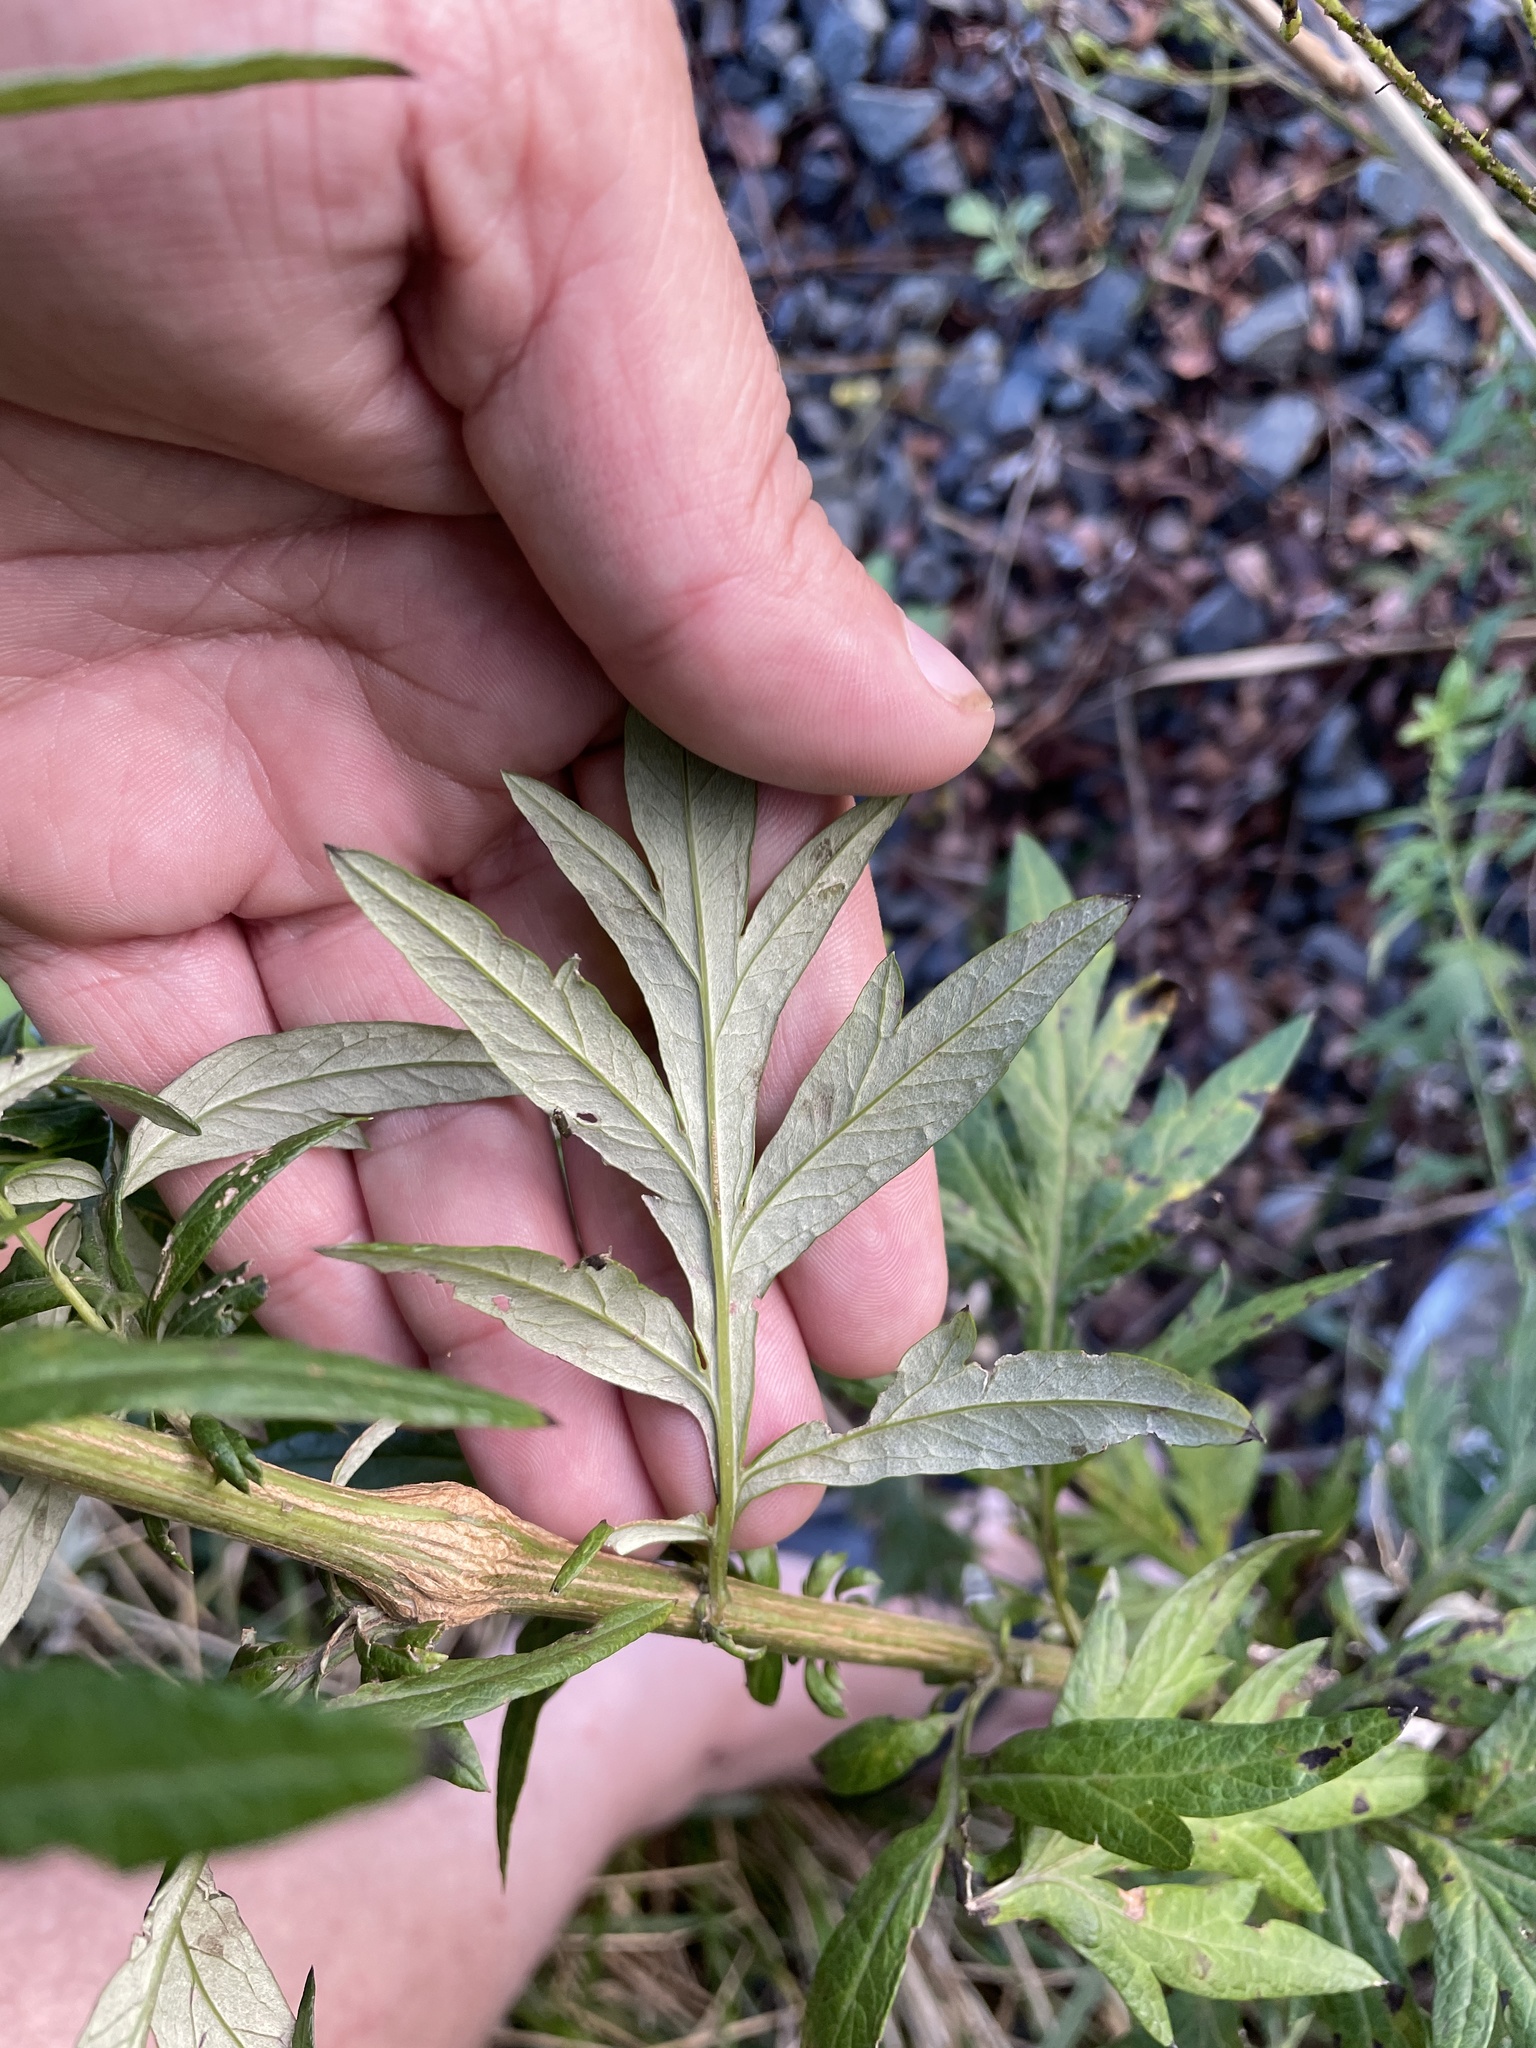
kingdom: Plantae
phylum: Tracheophyta
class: Magnoliopsida
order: Asterales
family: Asteraceae
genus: Artemisia
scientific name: Artemisia vulgaris
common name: Mugwort
